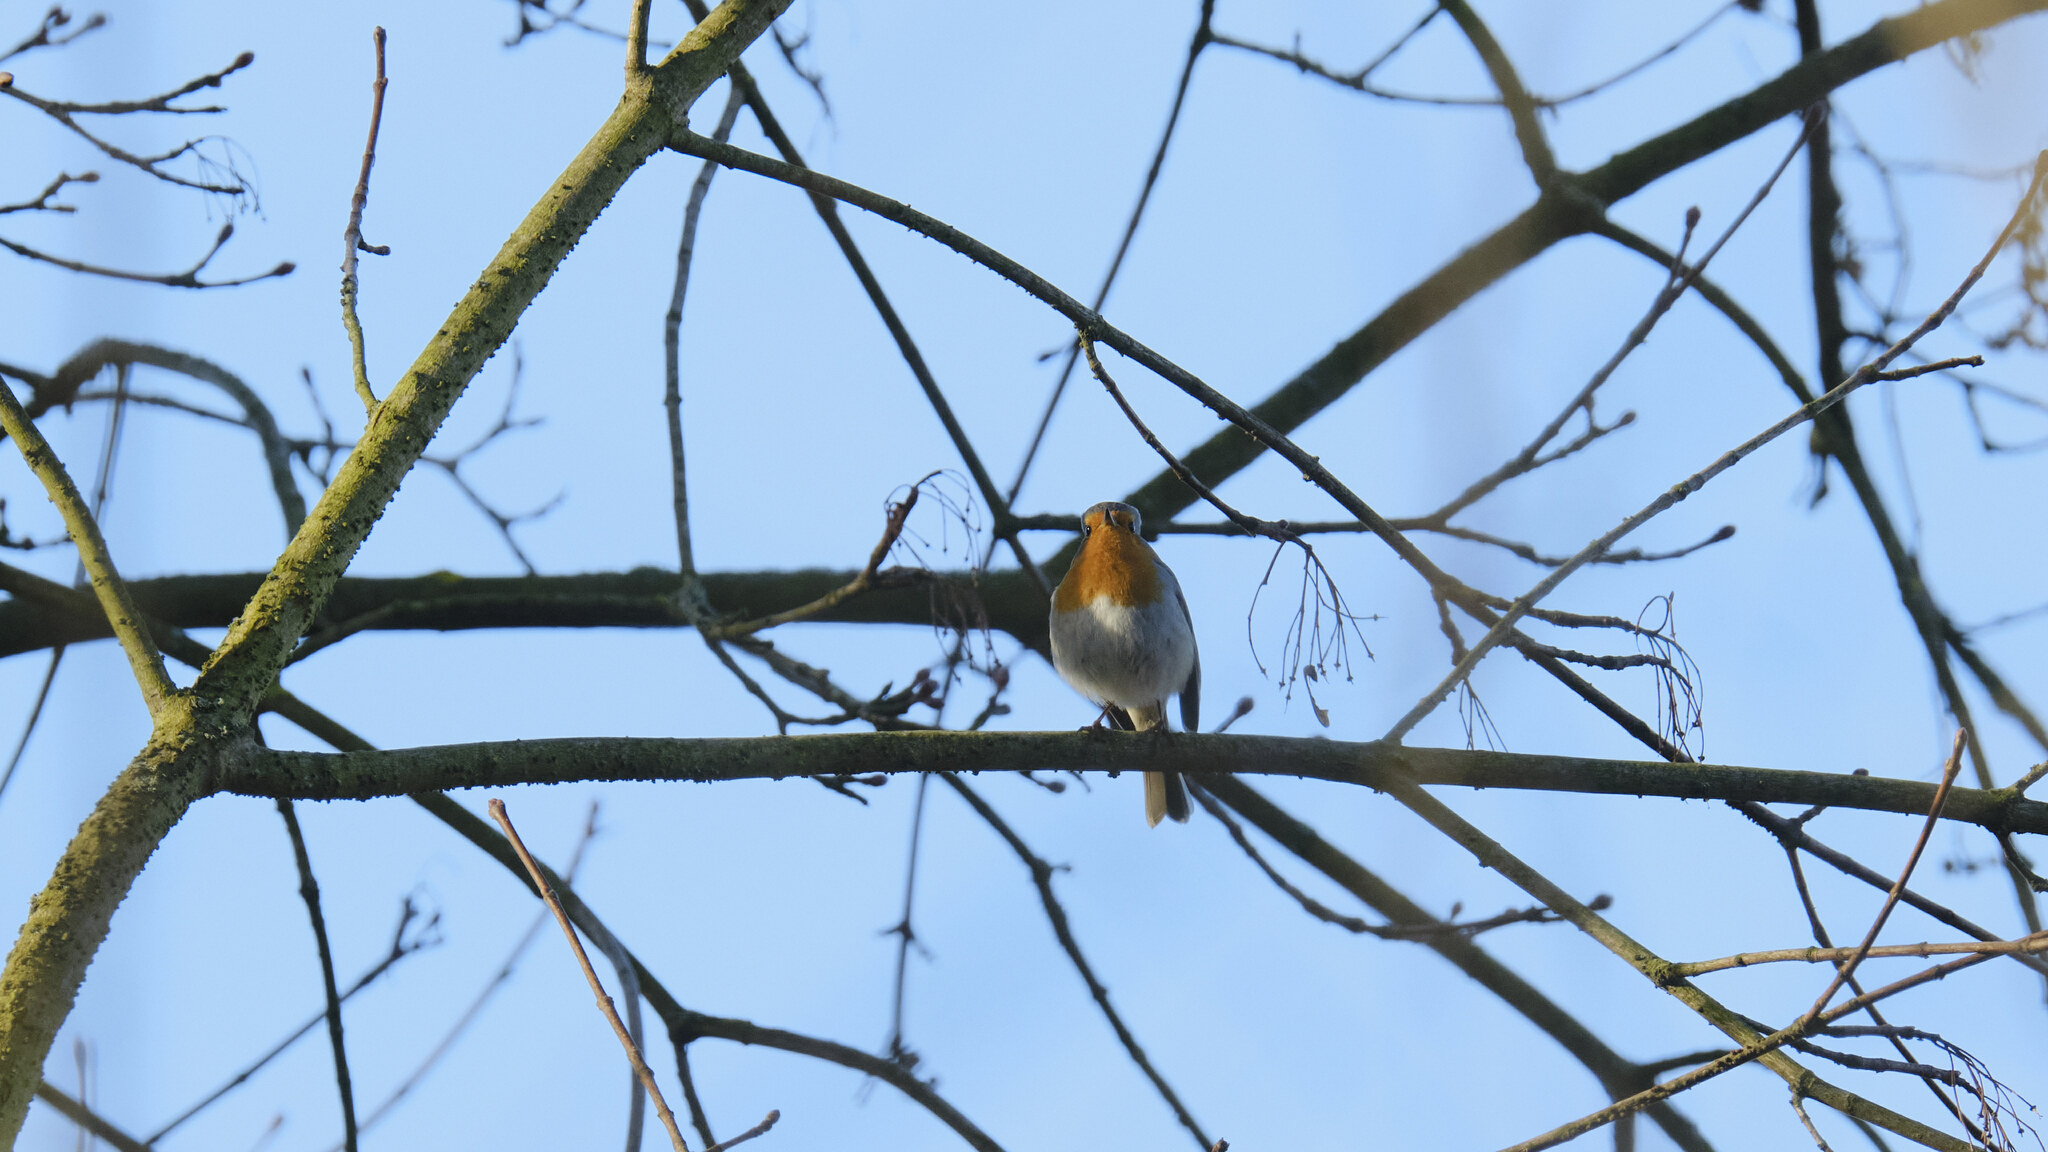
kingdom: Animalia
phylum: Chordata
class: Aves
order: Passeriformes
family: Muscicapidae
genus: Erithacus
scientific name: Erithacus rubecula
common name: European robin
